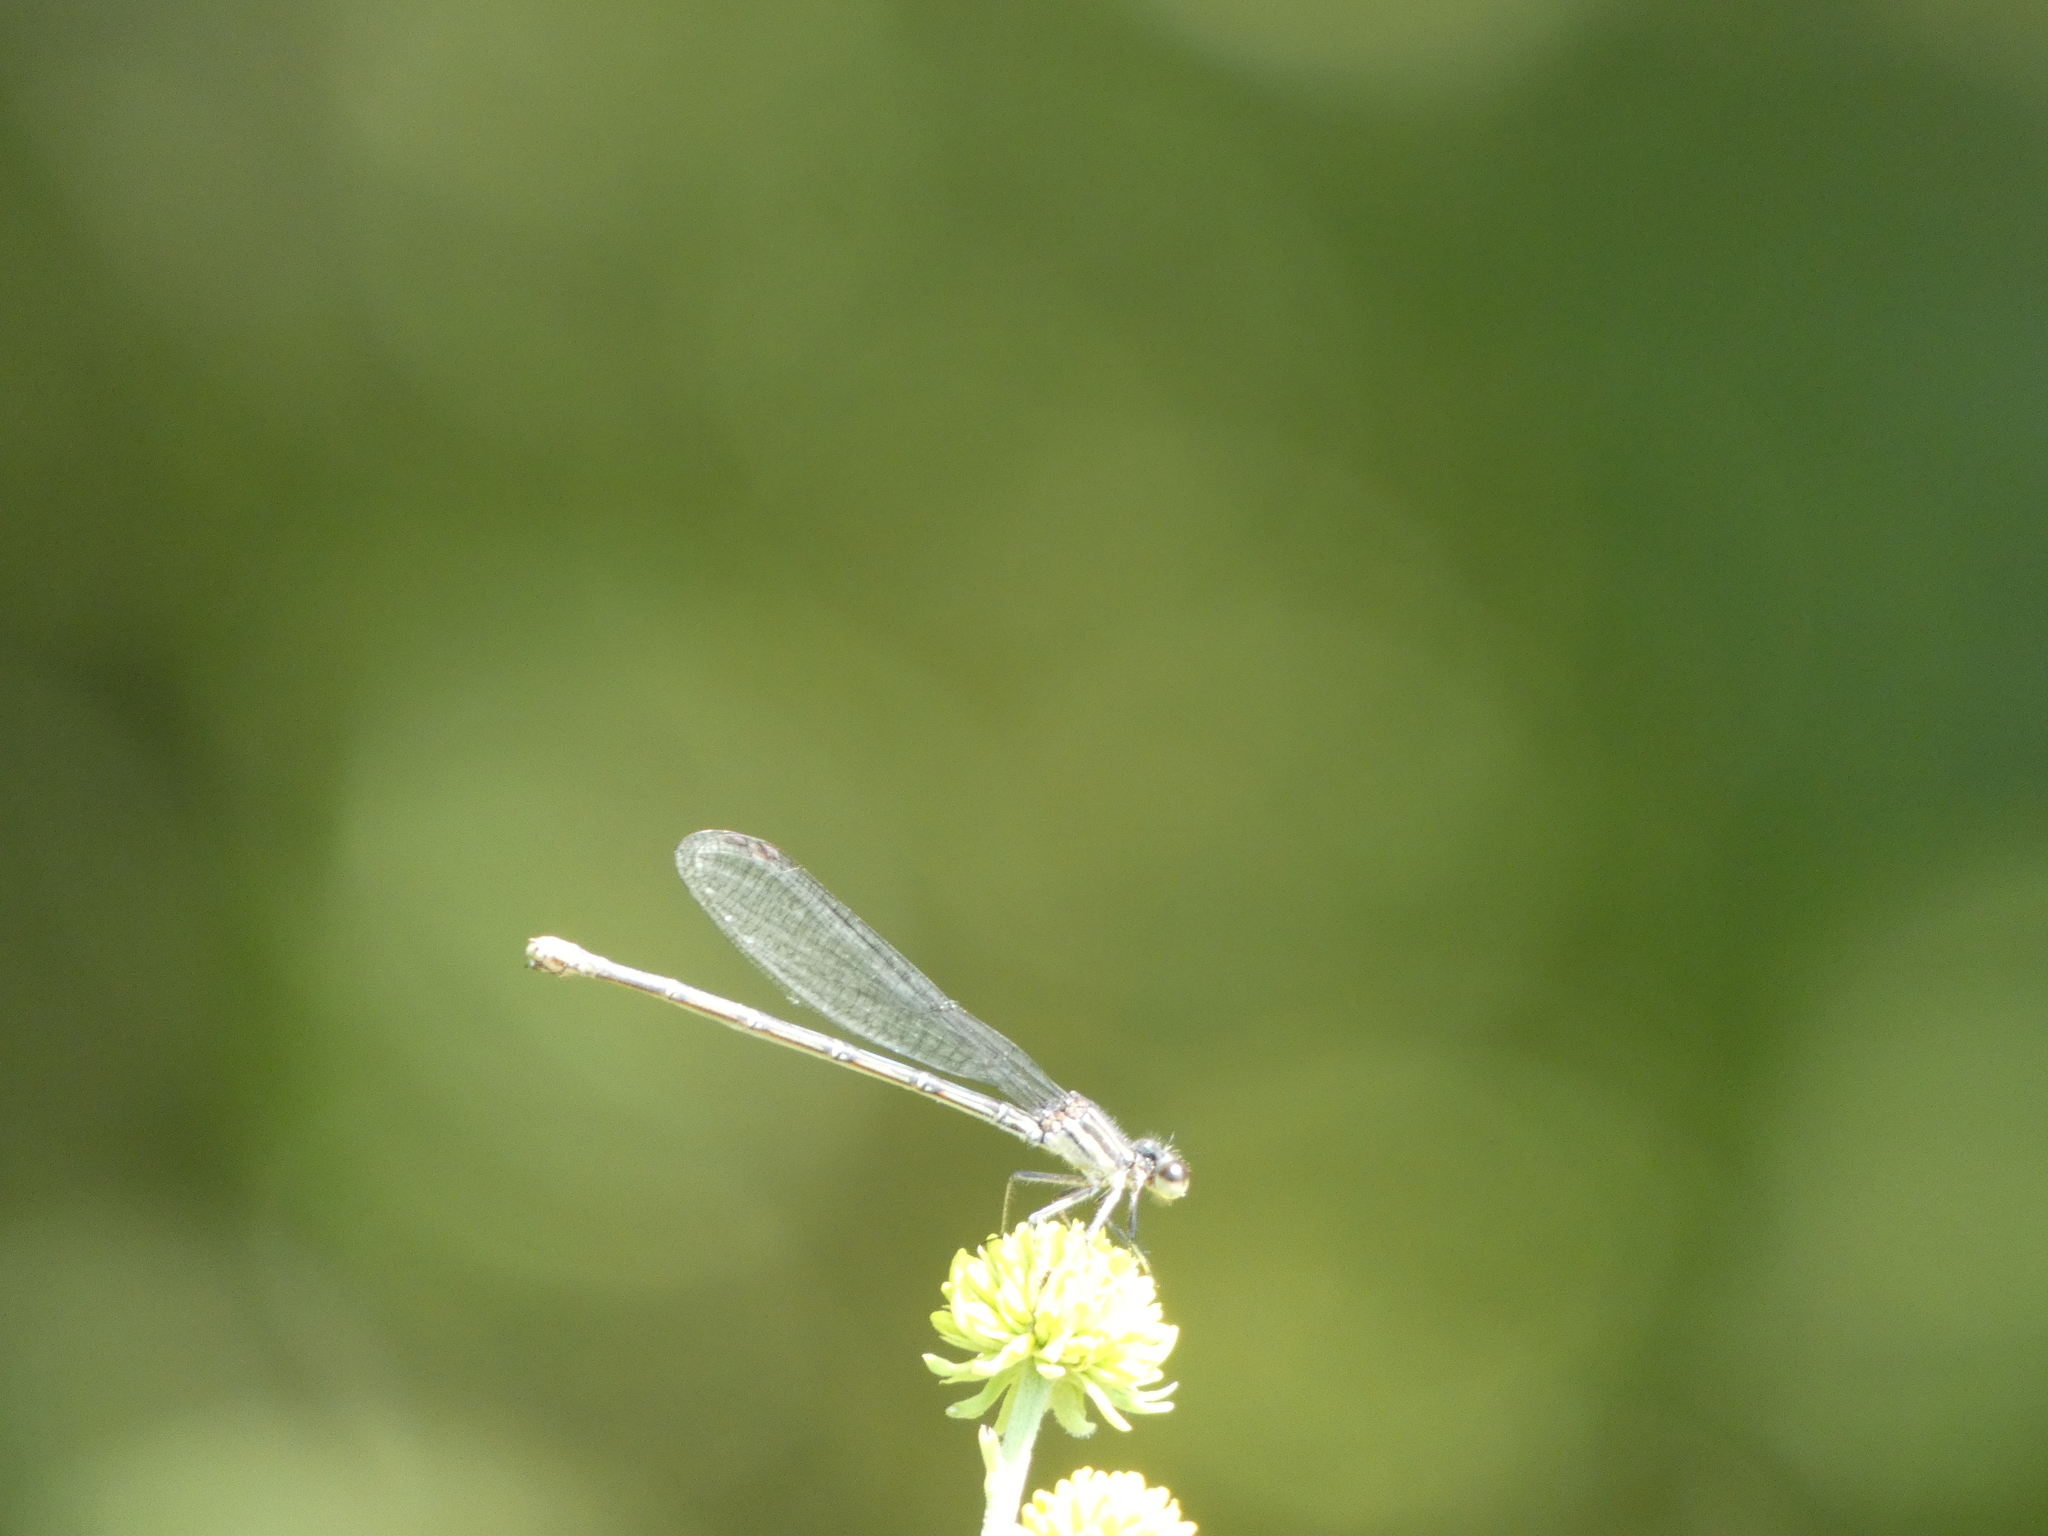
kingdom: Animalia
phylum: Arthropoda
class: Insecta
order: Odonata
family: Coenagrionidae
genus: Argia
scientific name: Argia translata
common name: Dusky dancer
